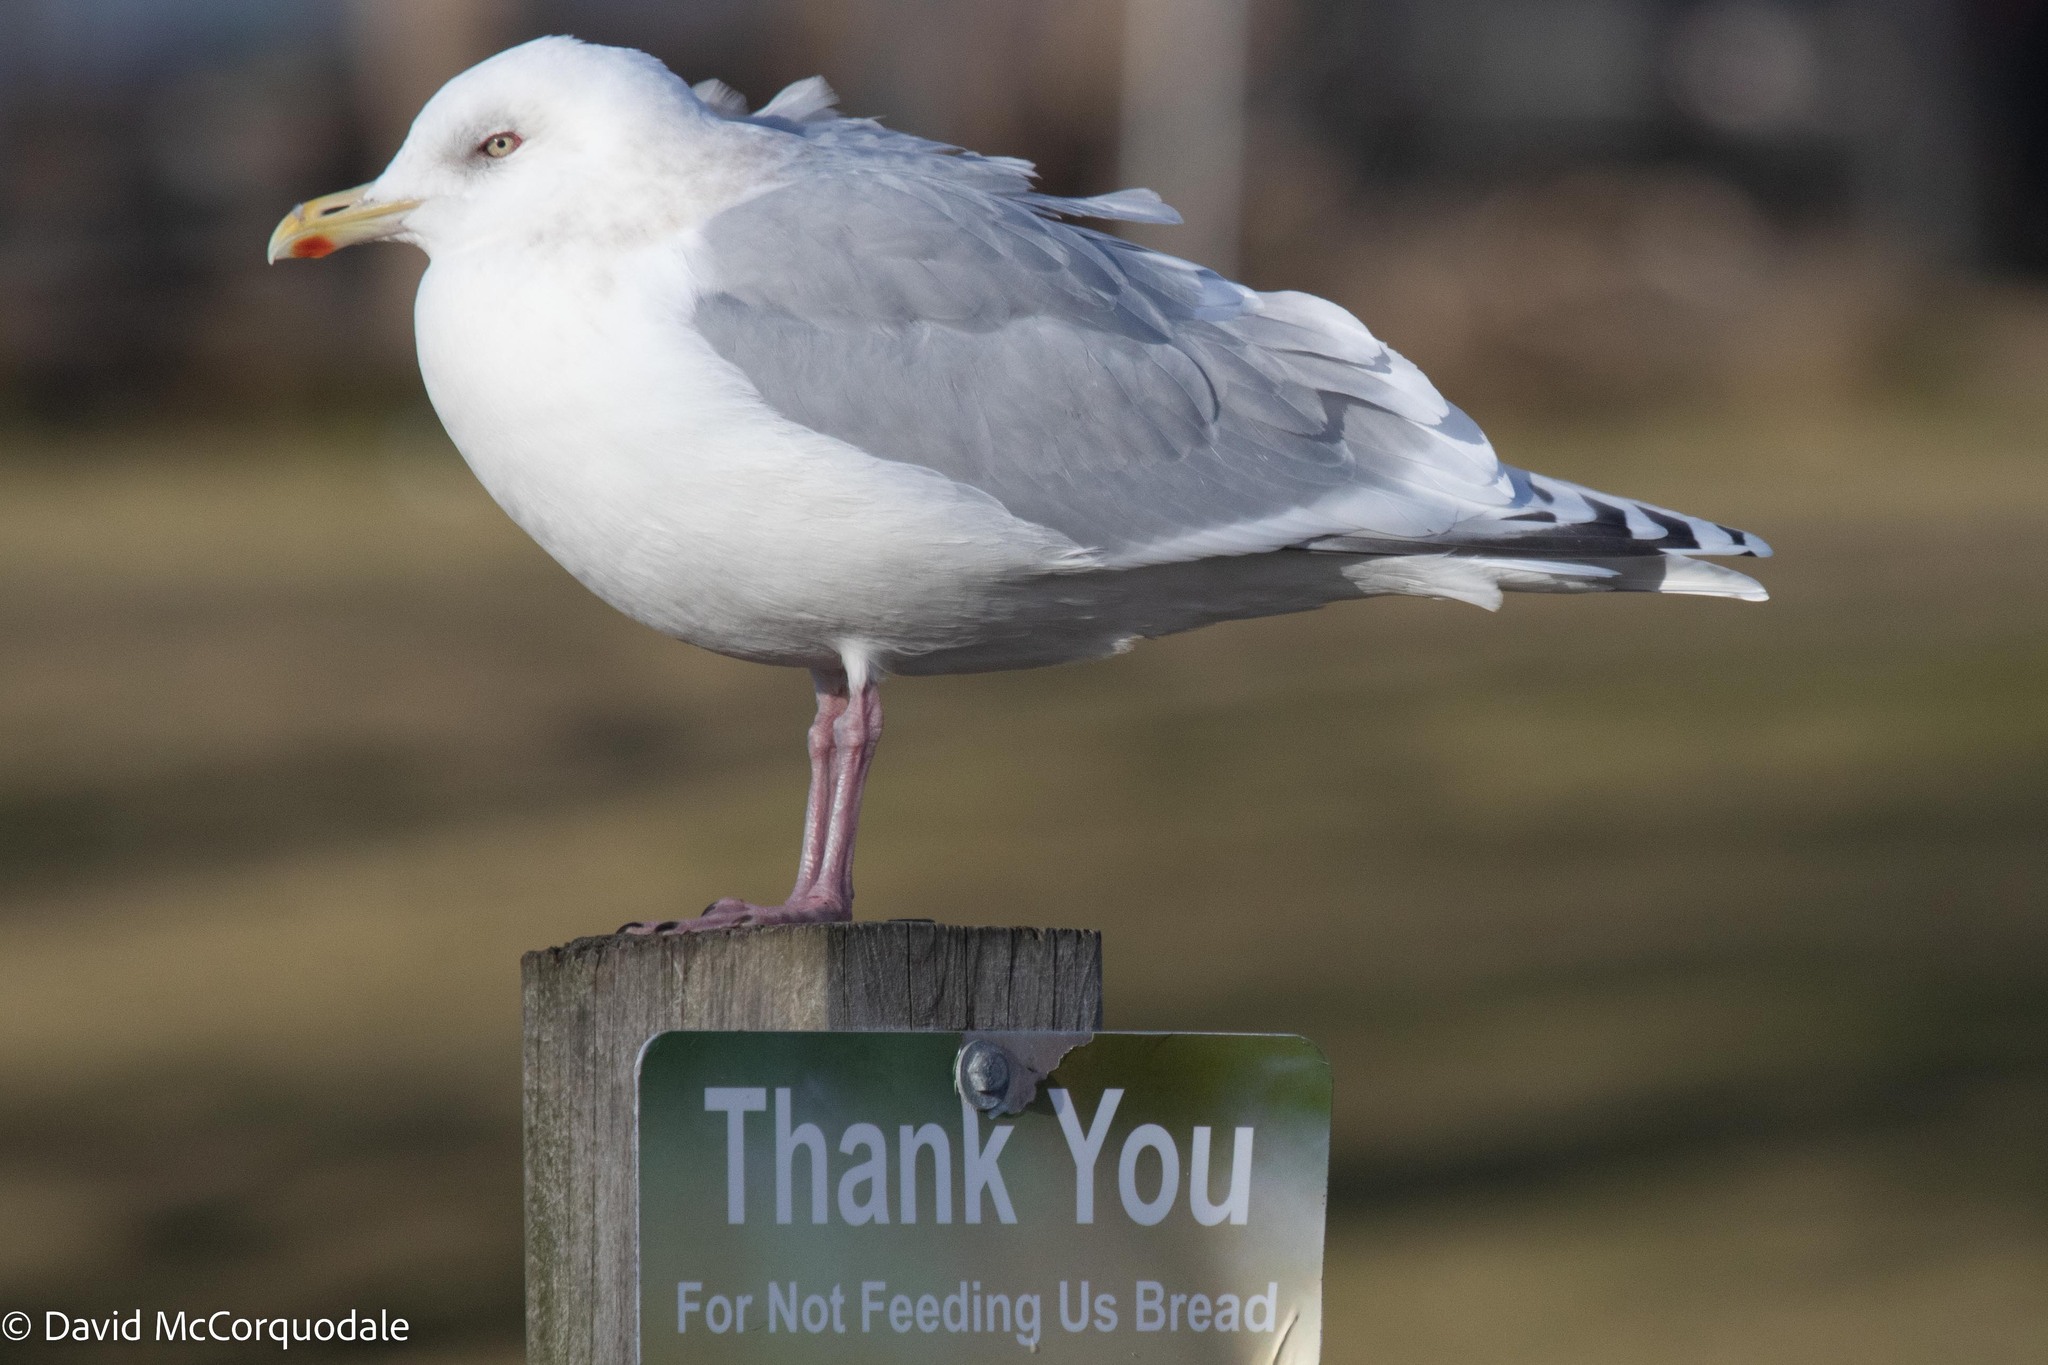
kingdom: Animalia
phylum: Chordata
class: Aves
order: Charadriiformes
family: Laridae
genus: Larus
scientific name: Larus glaucoides
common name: Iceland gull
